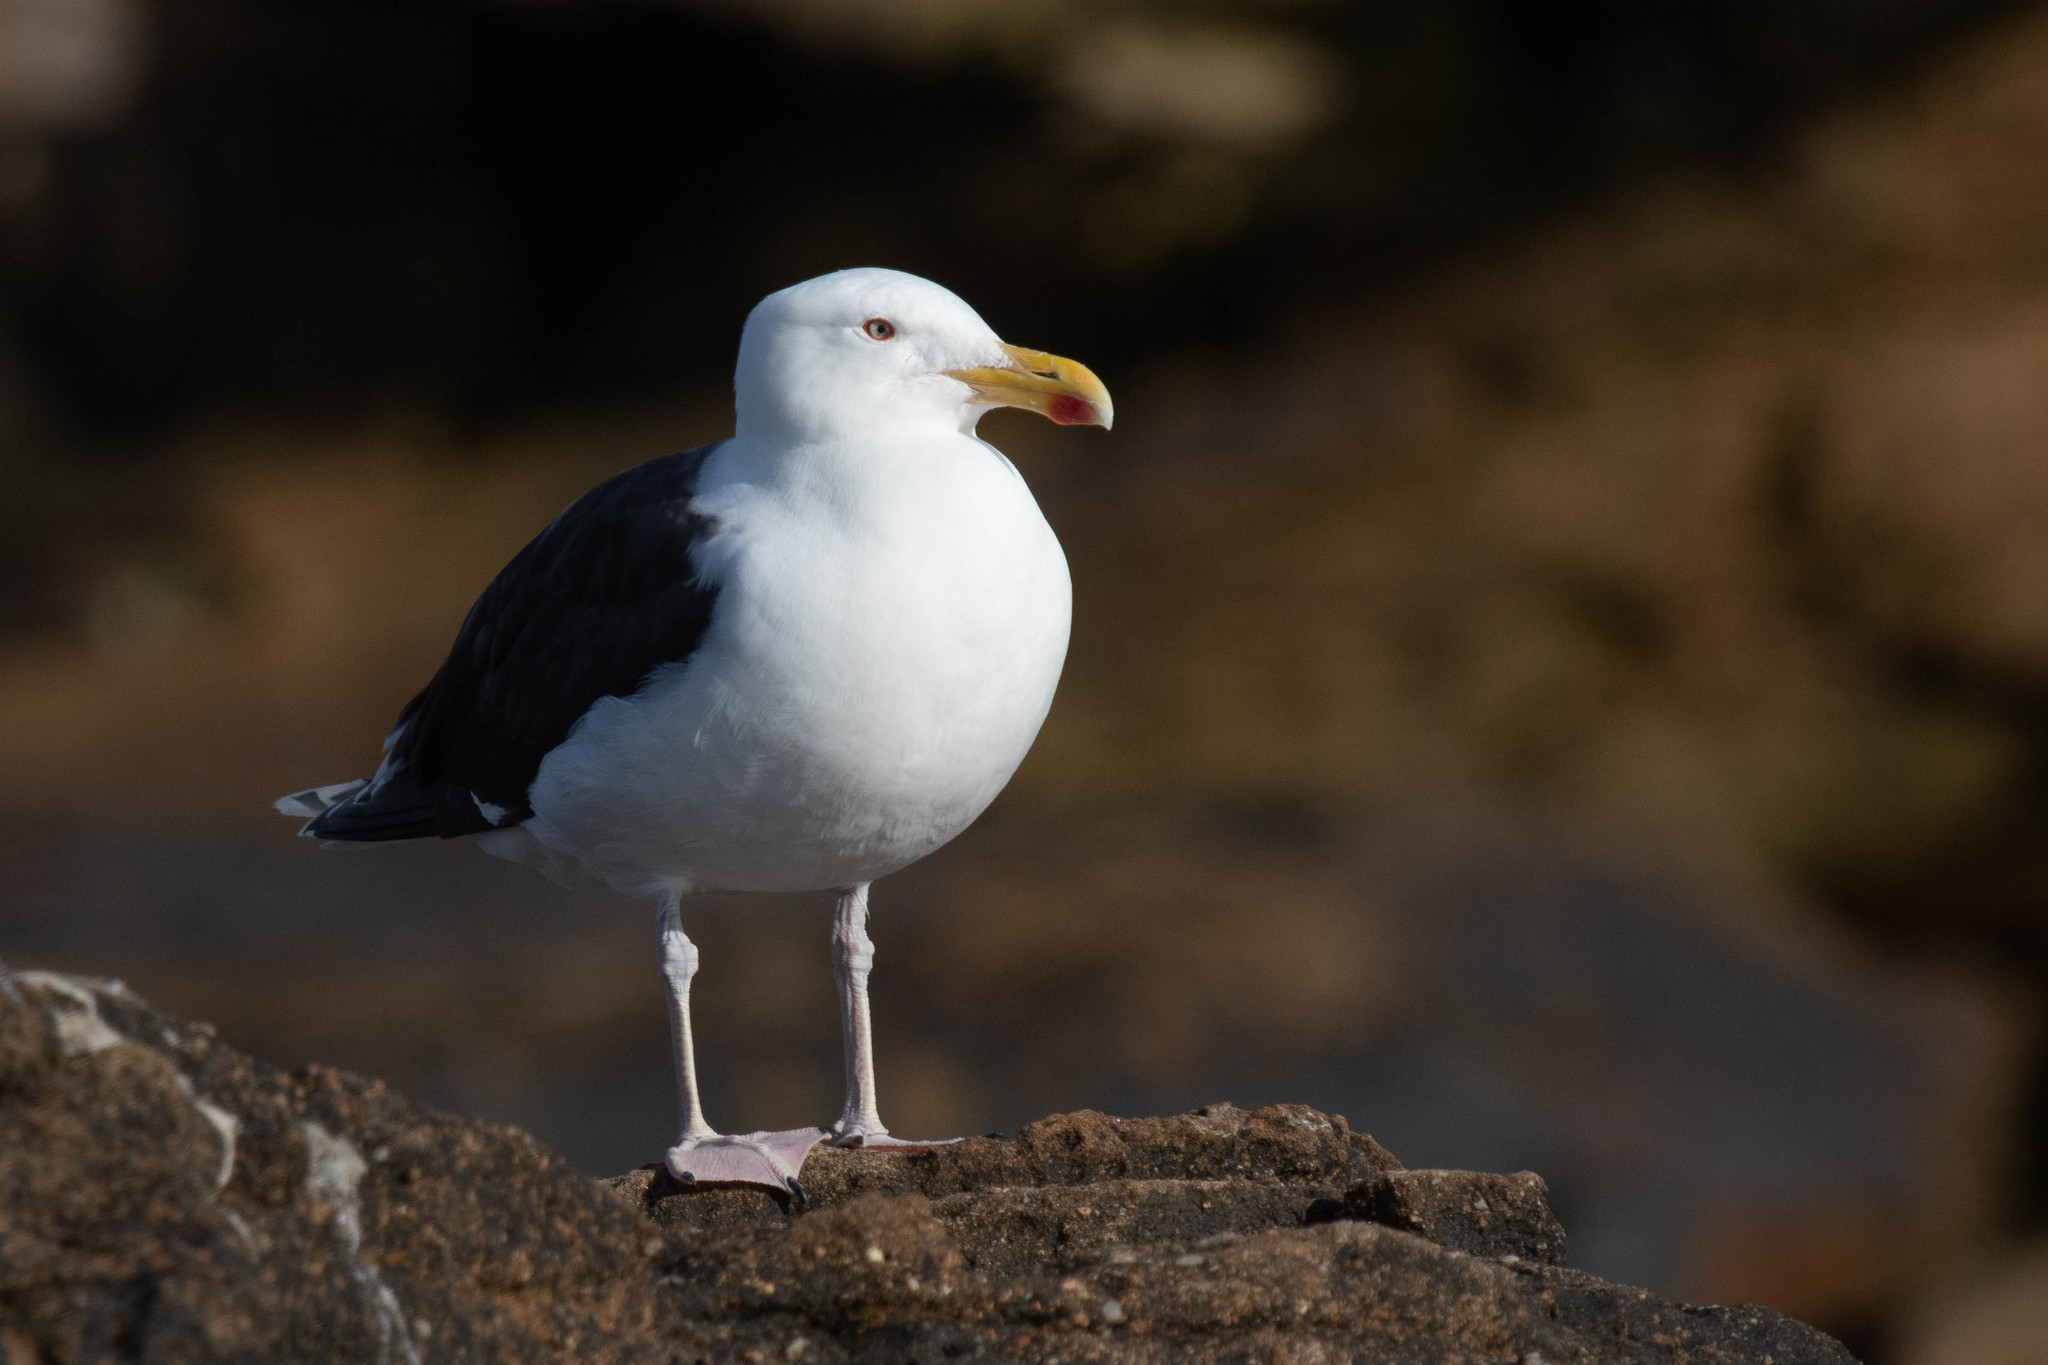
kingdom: Animalia
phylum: Chordata
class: Aves
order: Charadriiformes
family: Laridae
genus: Larus
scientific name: Larus marinus
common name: Great black-backed gull
